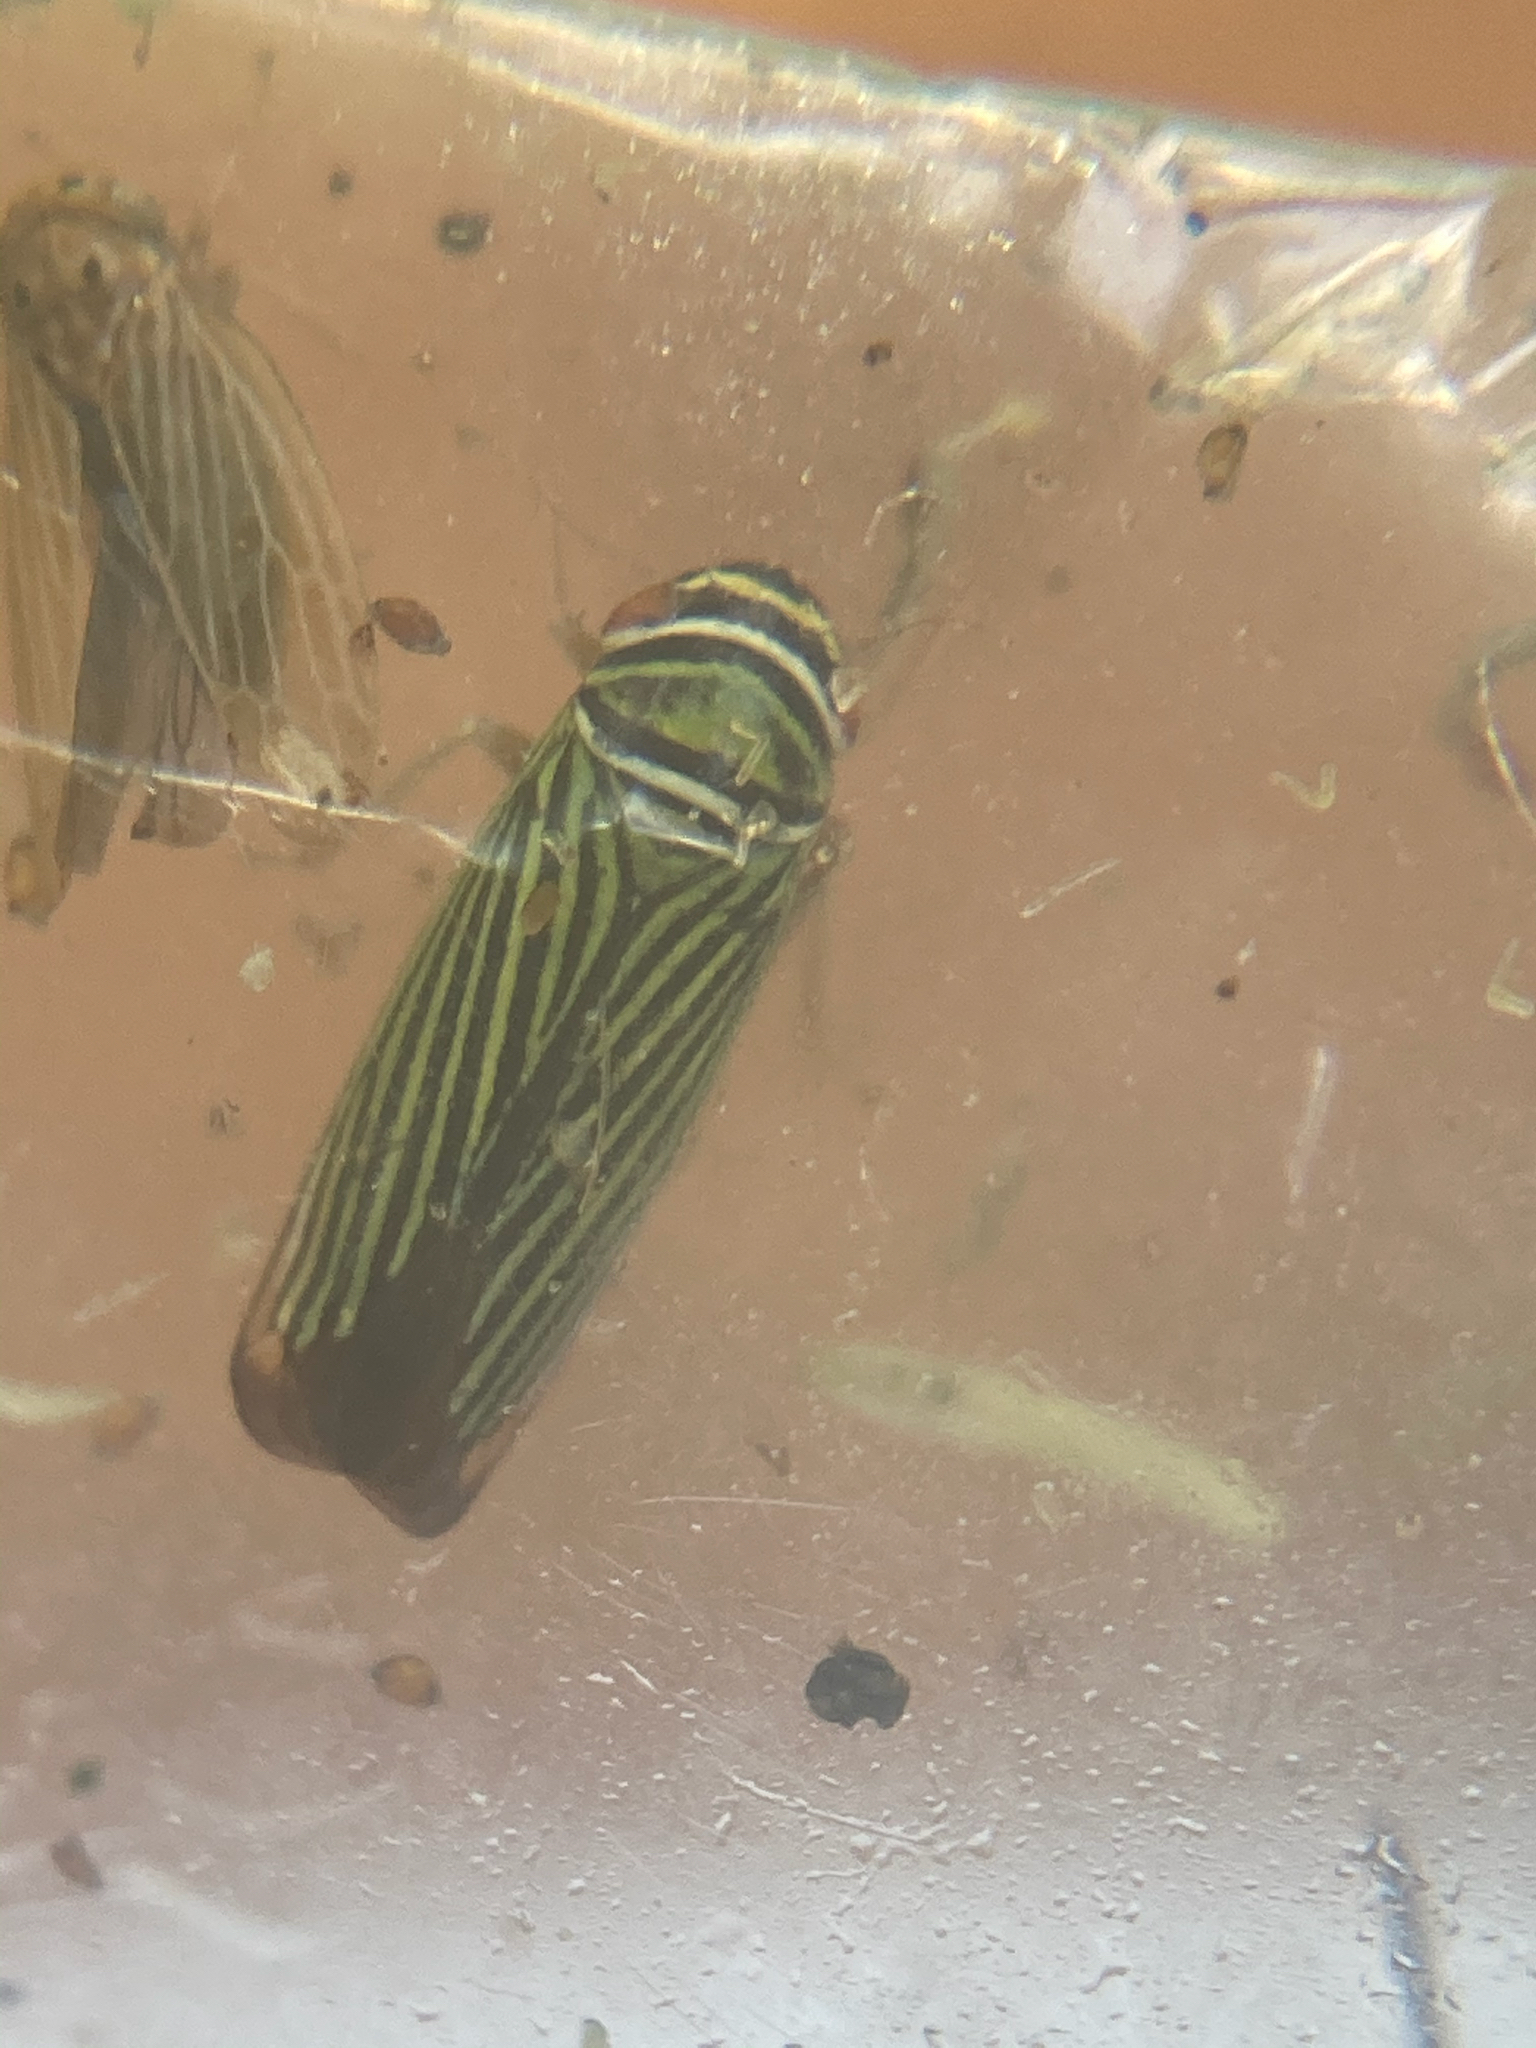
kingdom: Animalia
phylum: Arthropoda
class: Insecta
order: Hemiptera
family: Cicadellidae
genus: Tylozygus
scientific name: Tylozygus bifidus
